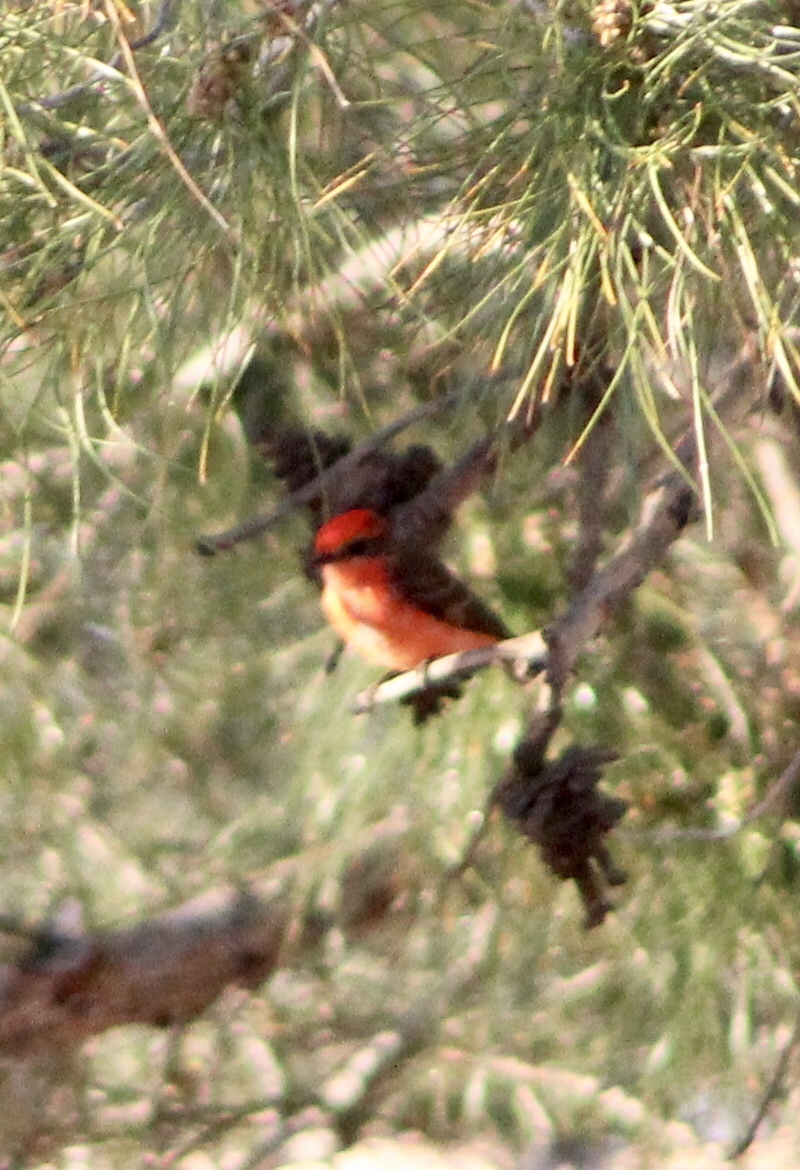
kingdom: Animalia
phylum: Chordata
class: Aves
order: Passeriformes
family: Tyrannidae
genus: Pyrocephalus
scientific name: Pyrocephalus rubinus
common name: Vermilion flycatcher
